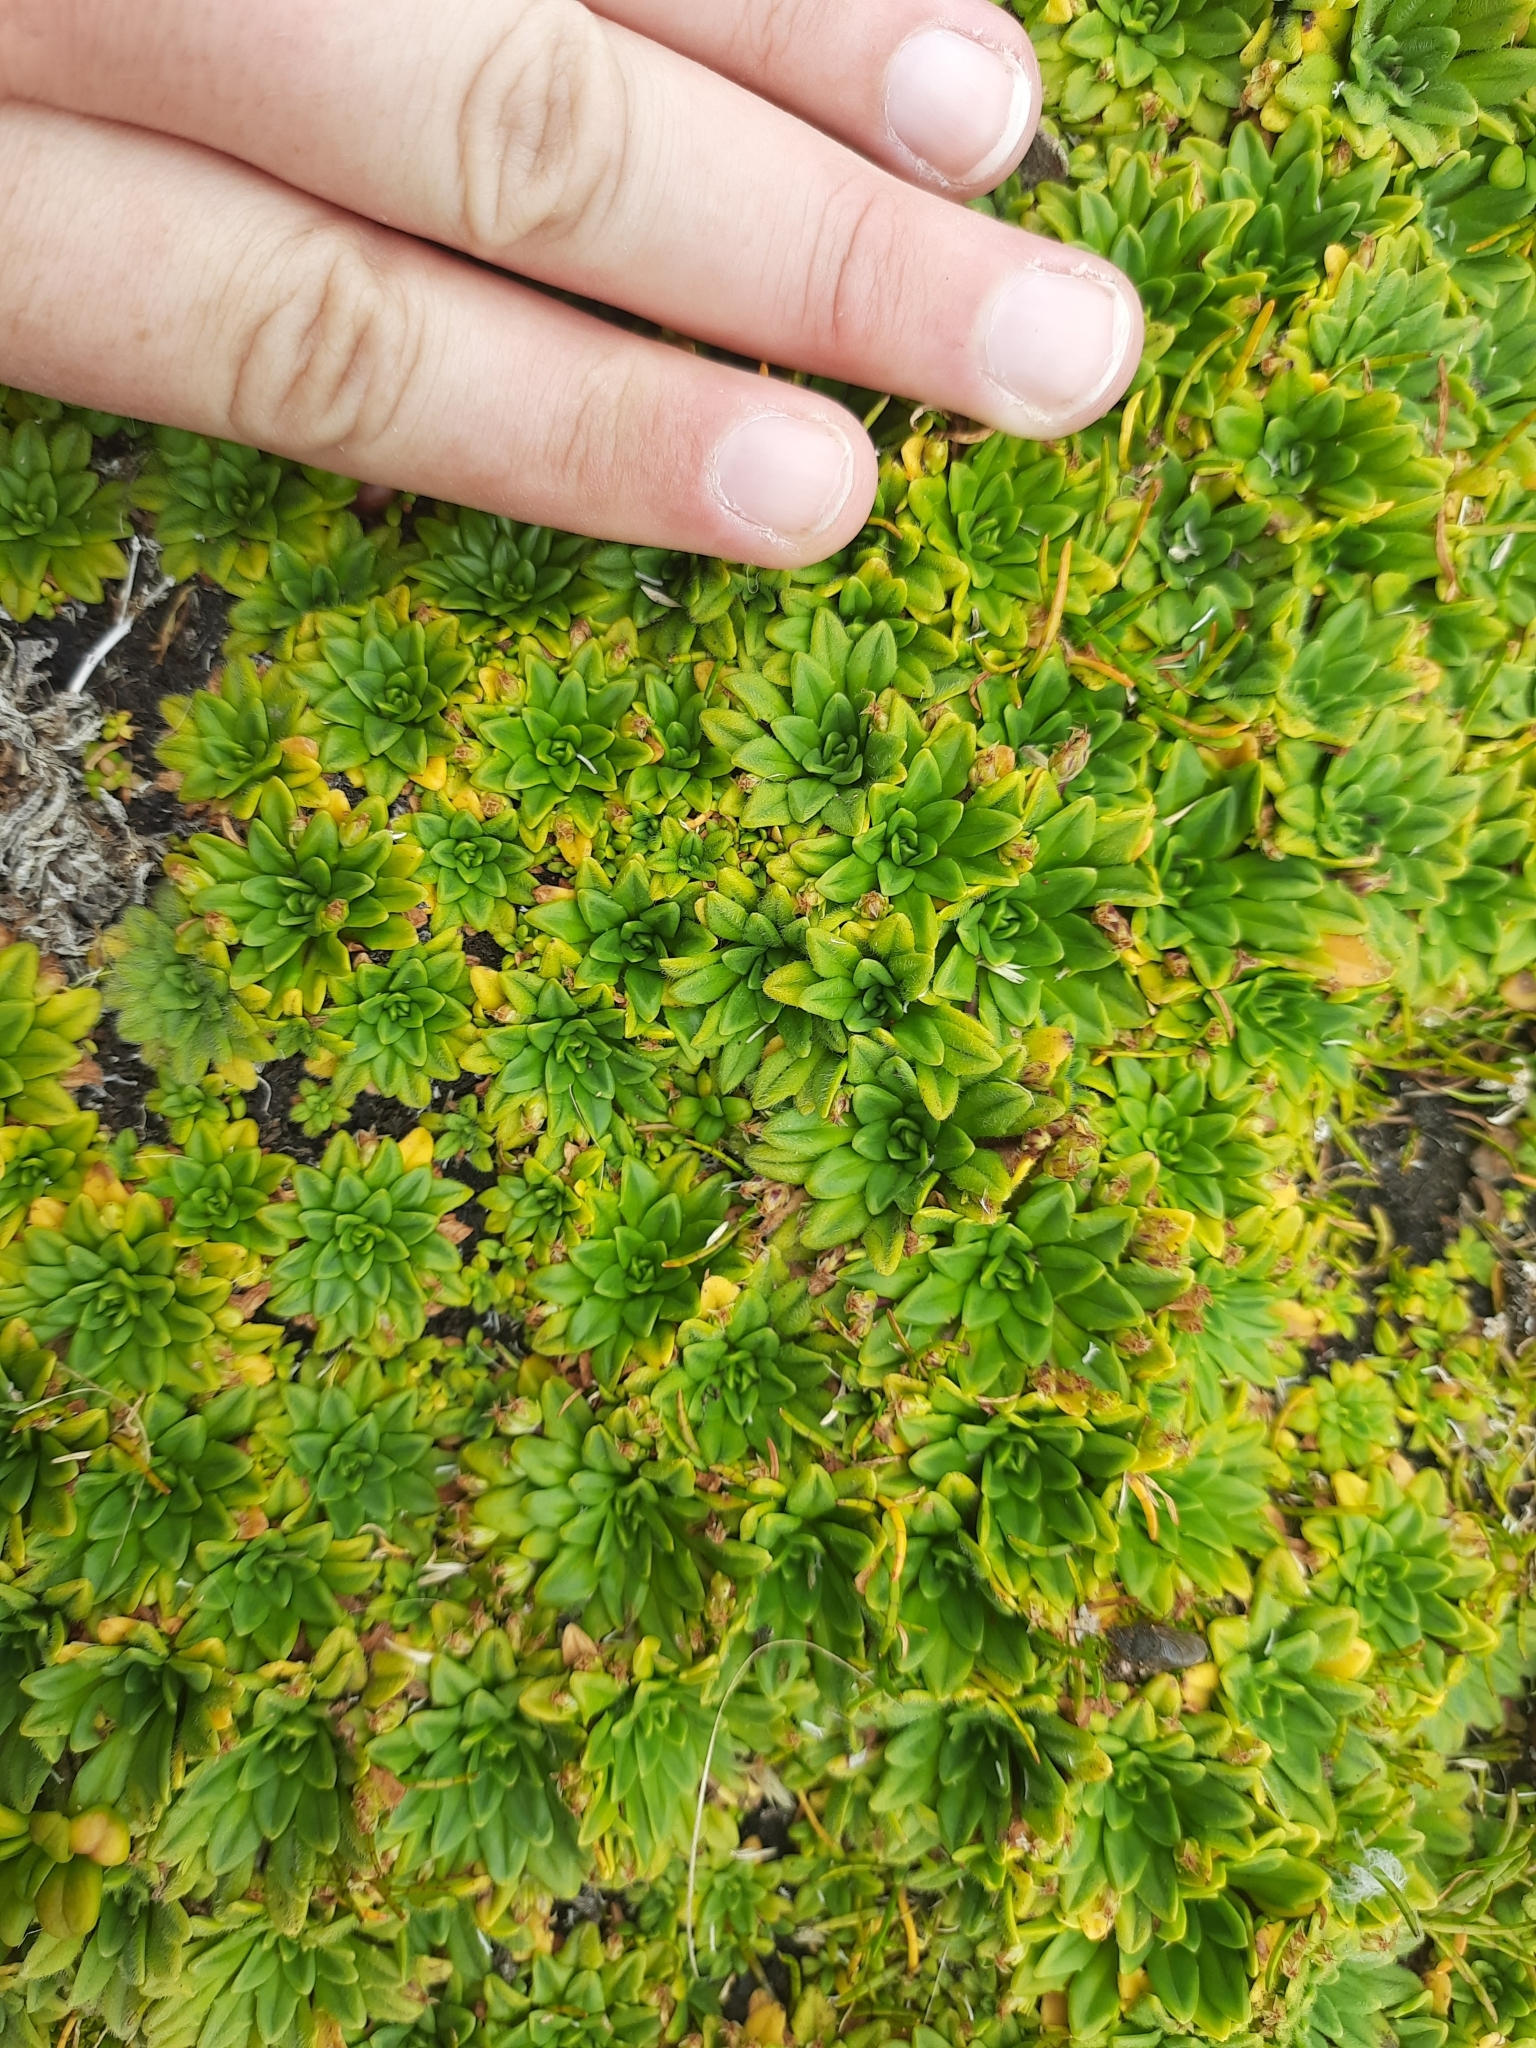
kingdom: Plantae
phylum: Tracheophyta
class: Magnoliopsida
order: Lamiales
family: Plantaginaceae
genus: Plantago
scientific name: Plantago brownii
